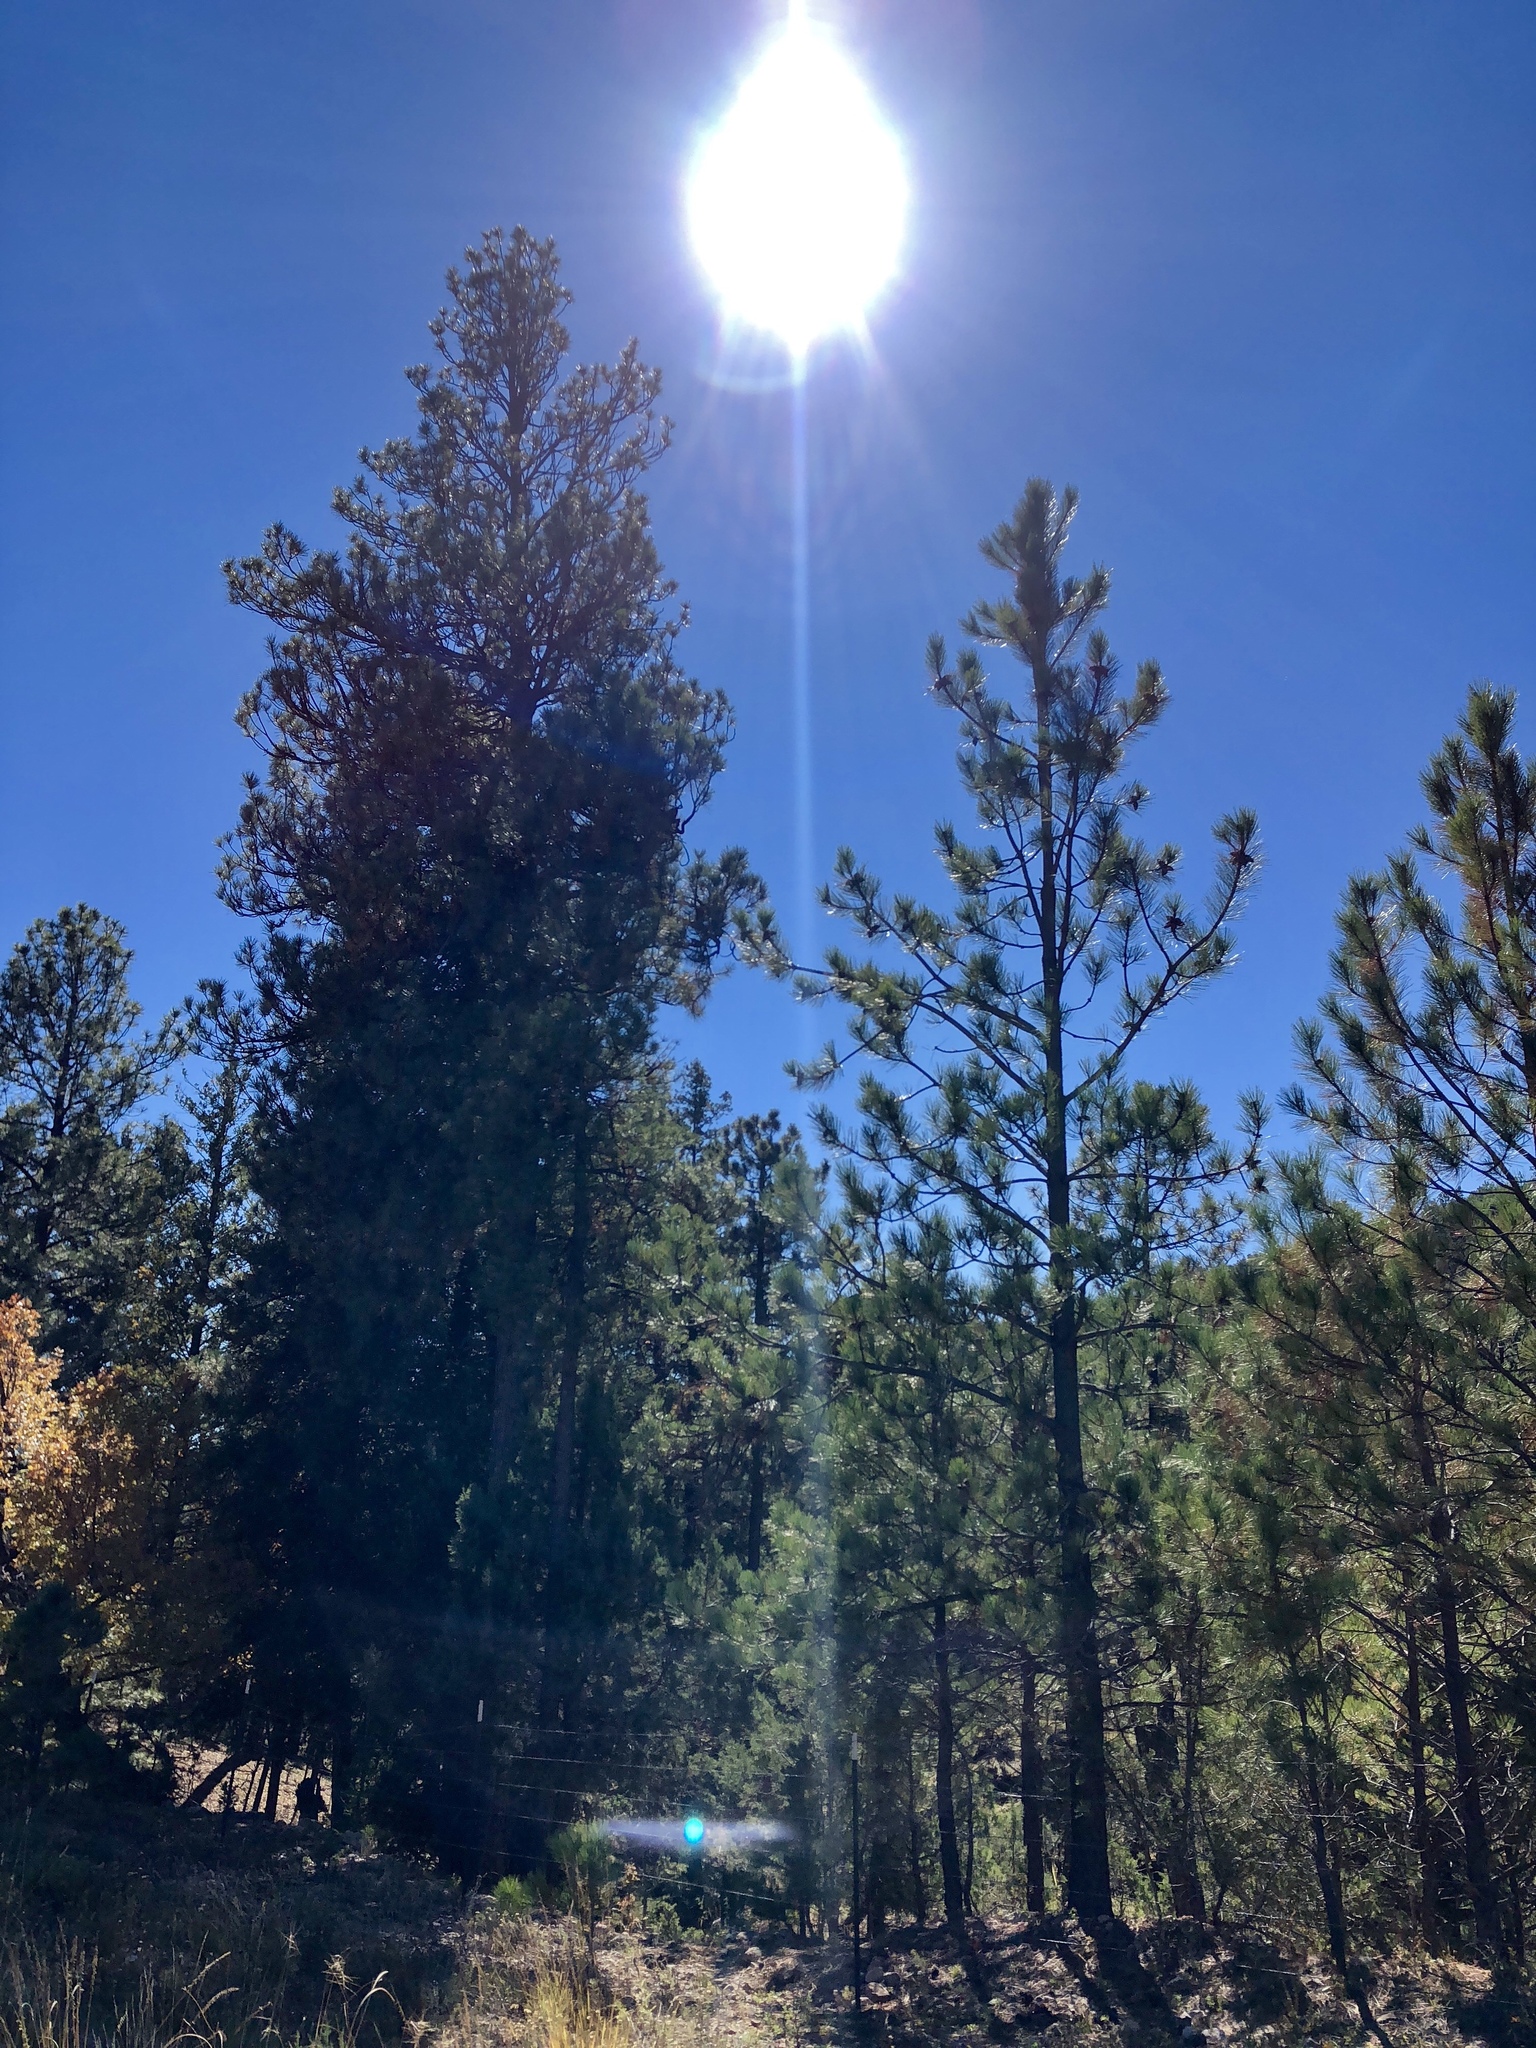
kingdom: Plantae
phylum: Tracheophyta
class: Pinopsida
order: Pinales
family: Pinaceae
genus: Pinus
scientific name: Pinus ponderosa
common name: Western yellow-pine
